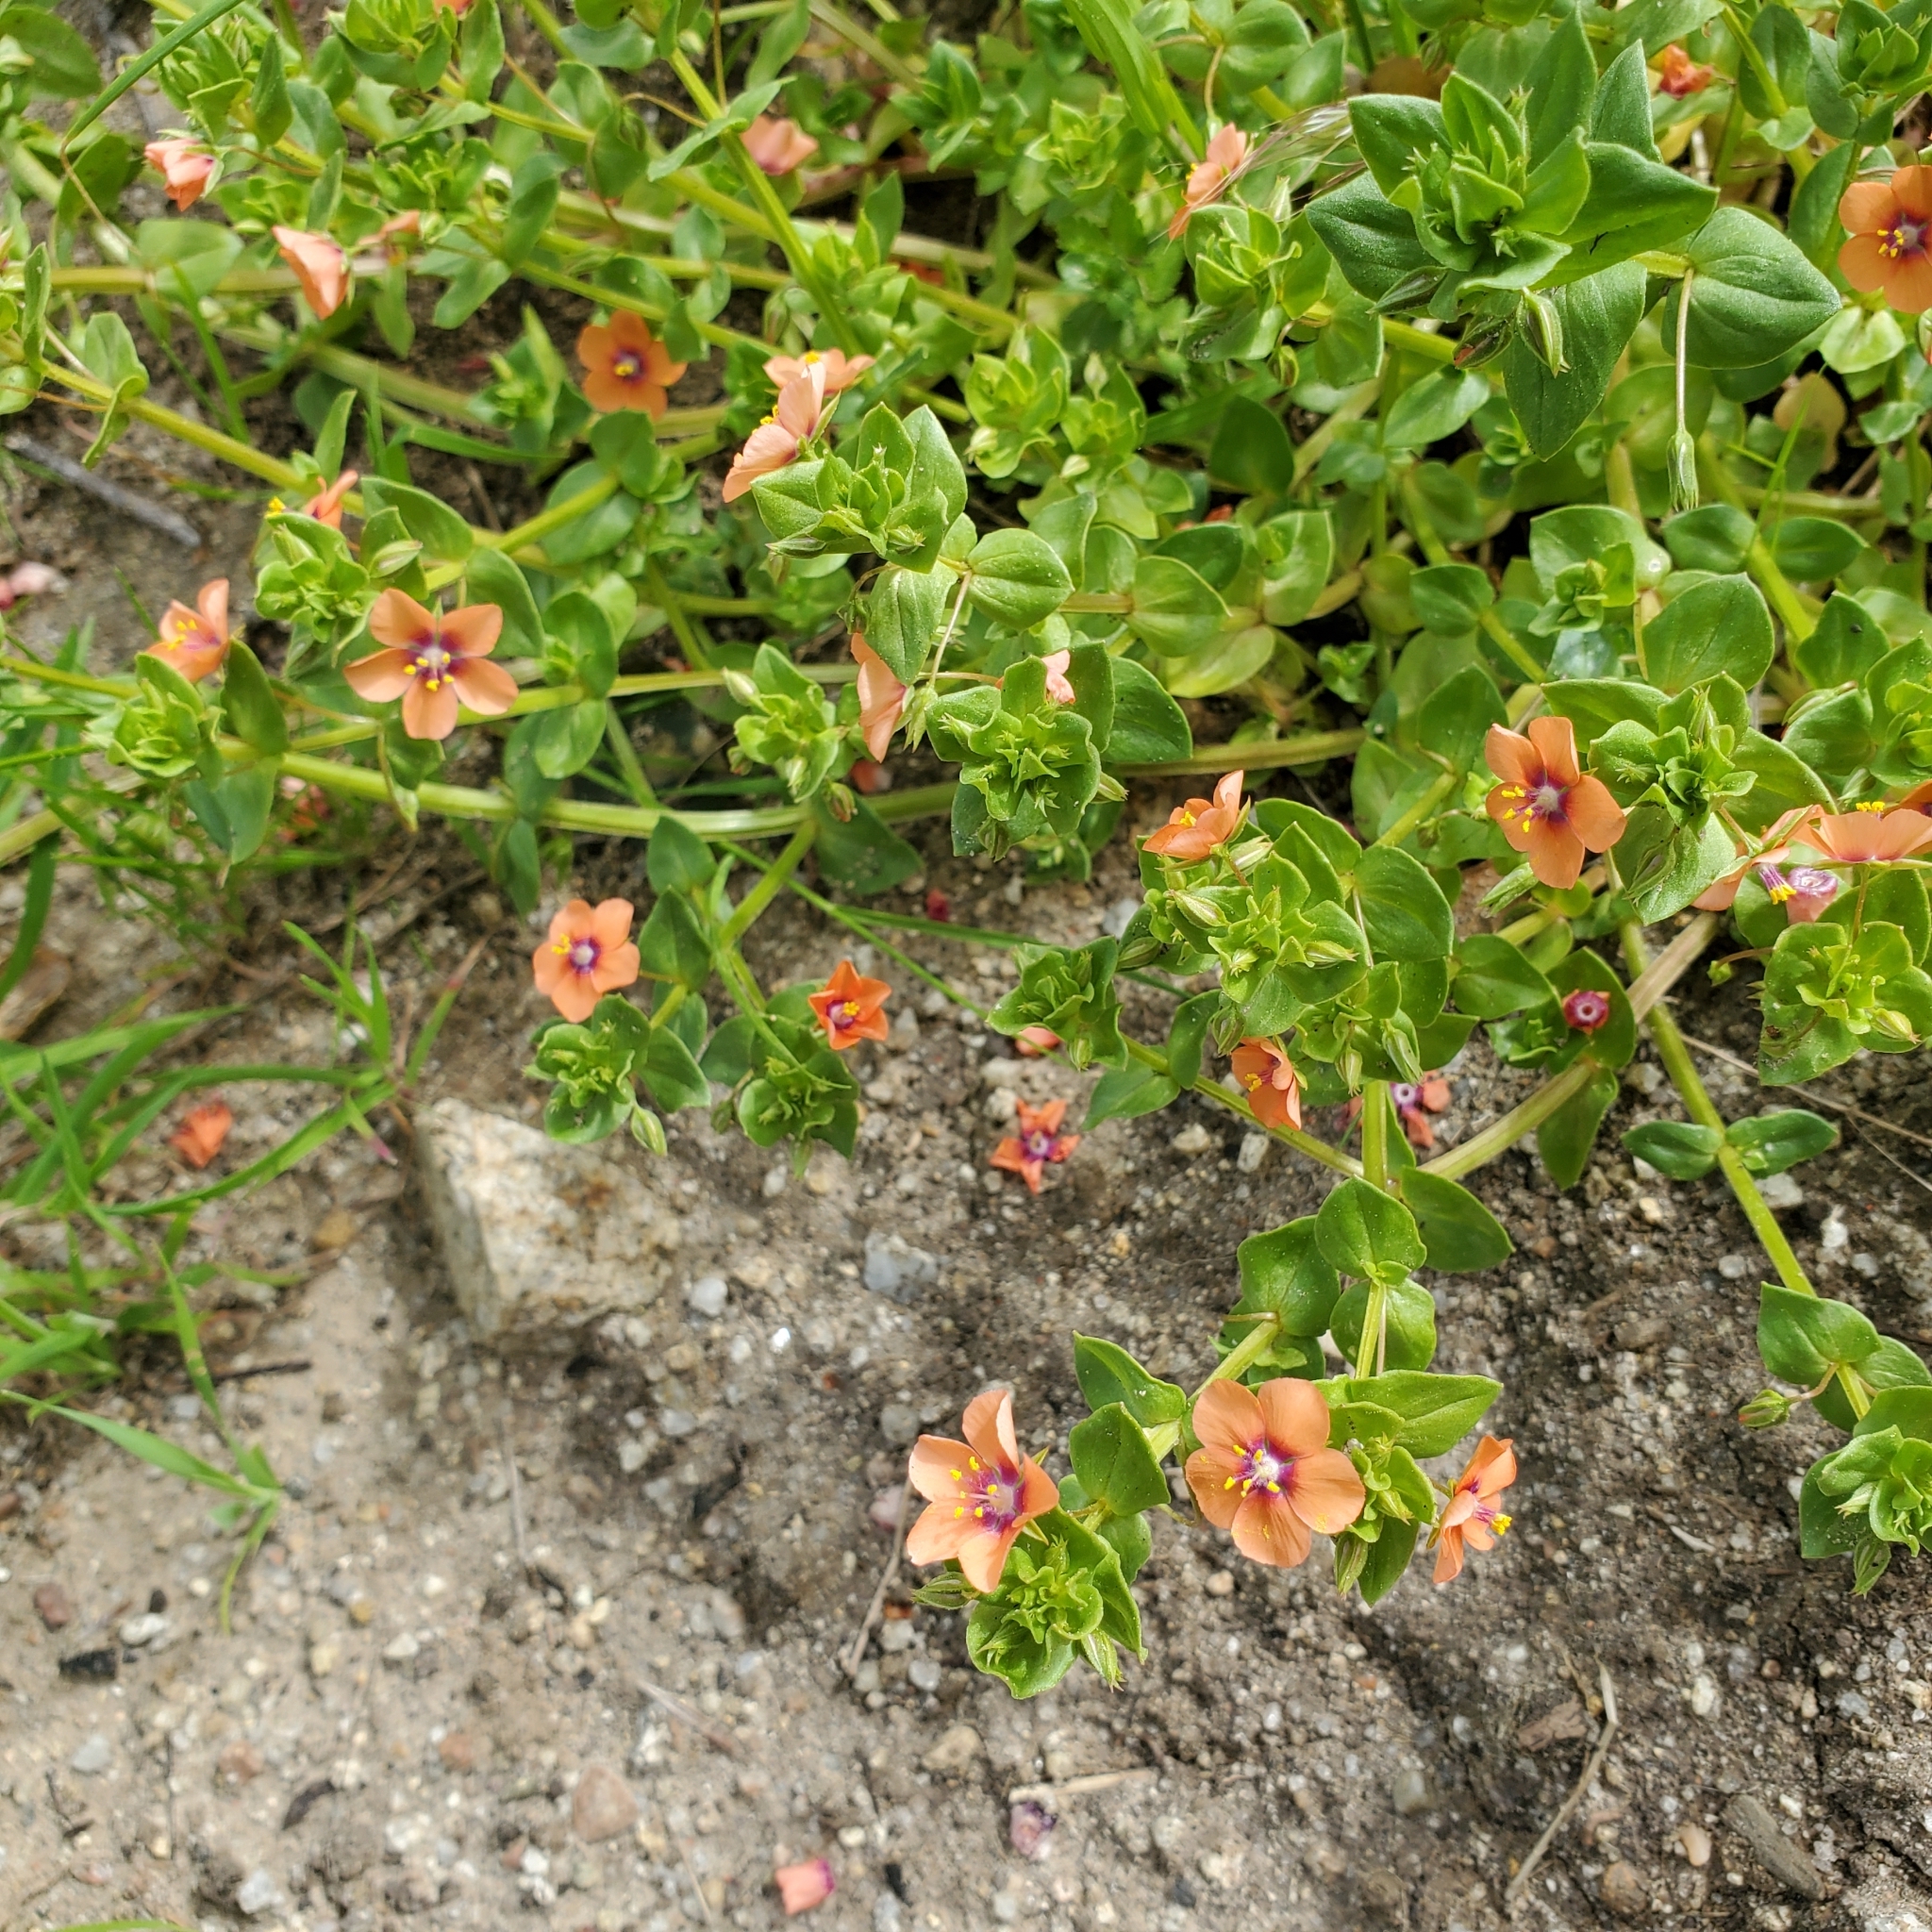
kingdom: Plantae
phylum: Tracheophyta
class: Magnoliopsida
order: Ericales
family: Primulaceae
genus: Lysimachia
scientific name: Lysimachia arvensis
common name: Scarlet pimpernel
